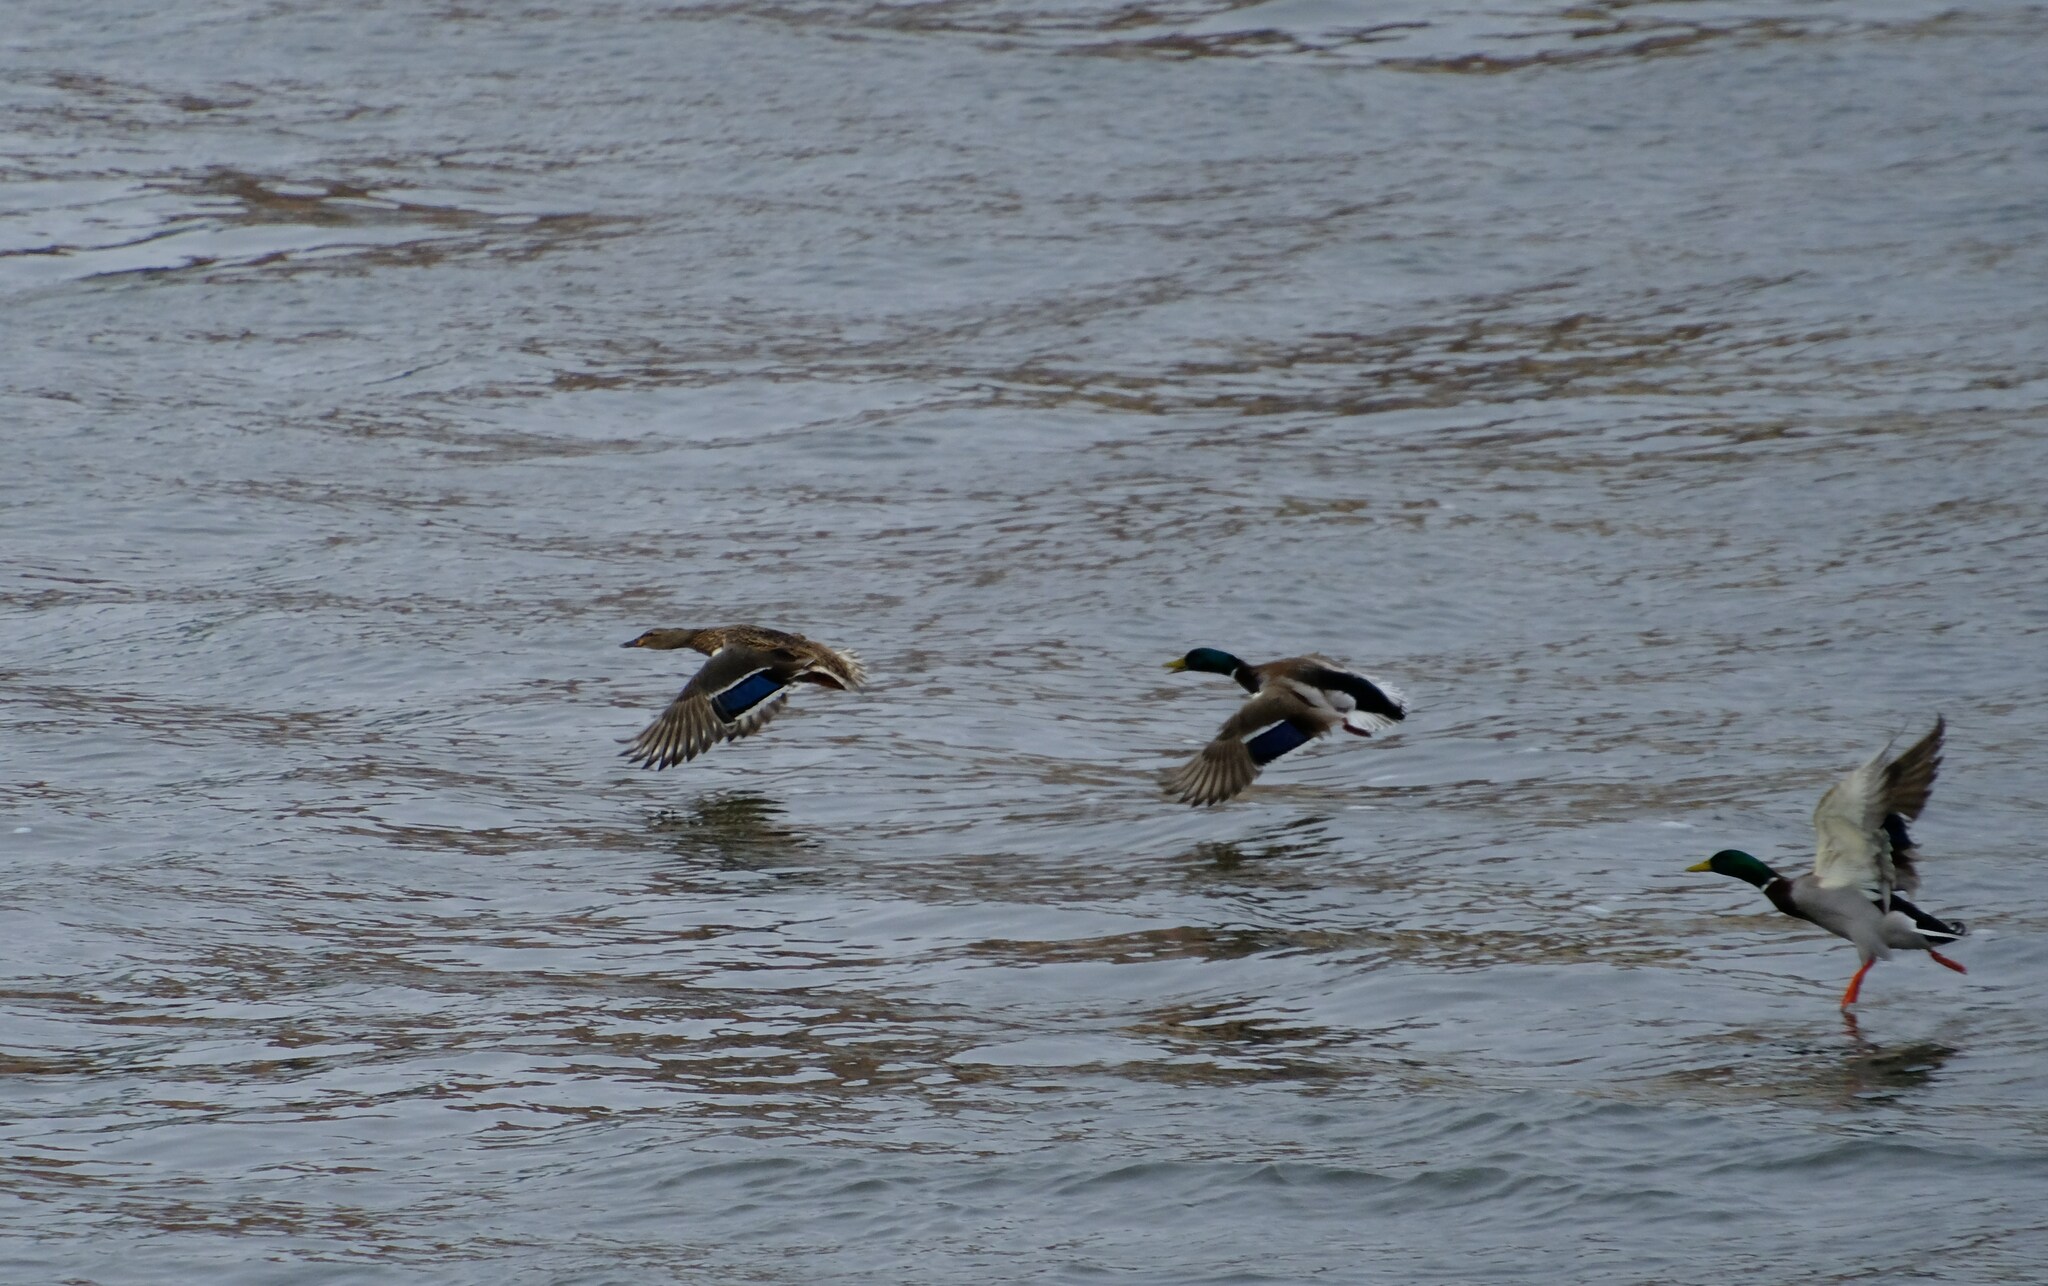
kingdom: Animalia
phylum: Chordata
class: Aves
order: Anseriformes
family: Anatidae
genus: Anas
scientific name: Anas platyrhynchos
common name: Mallard
